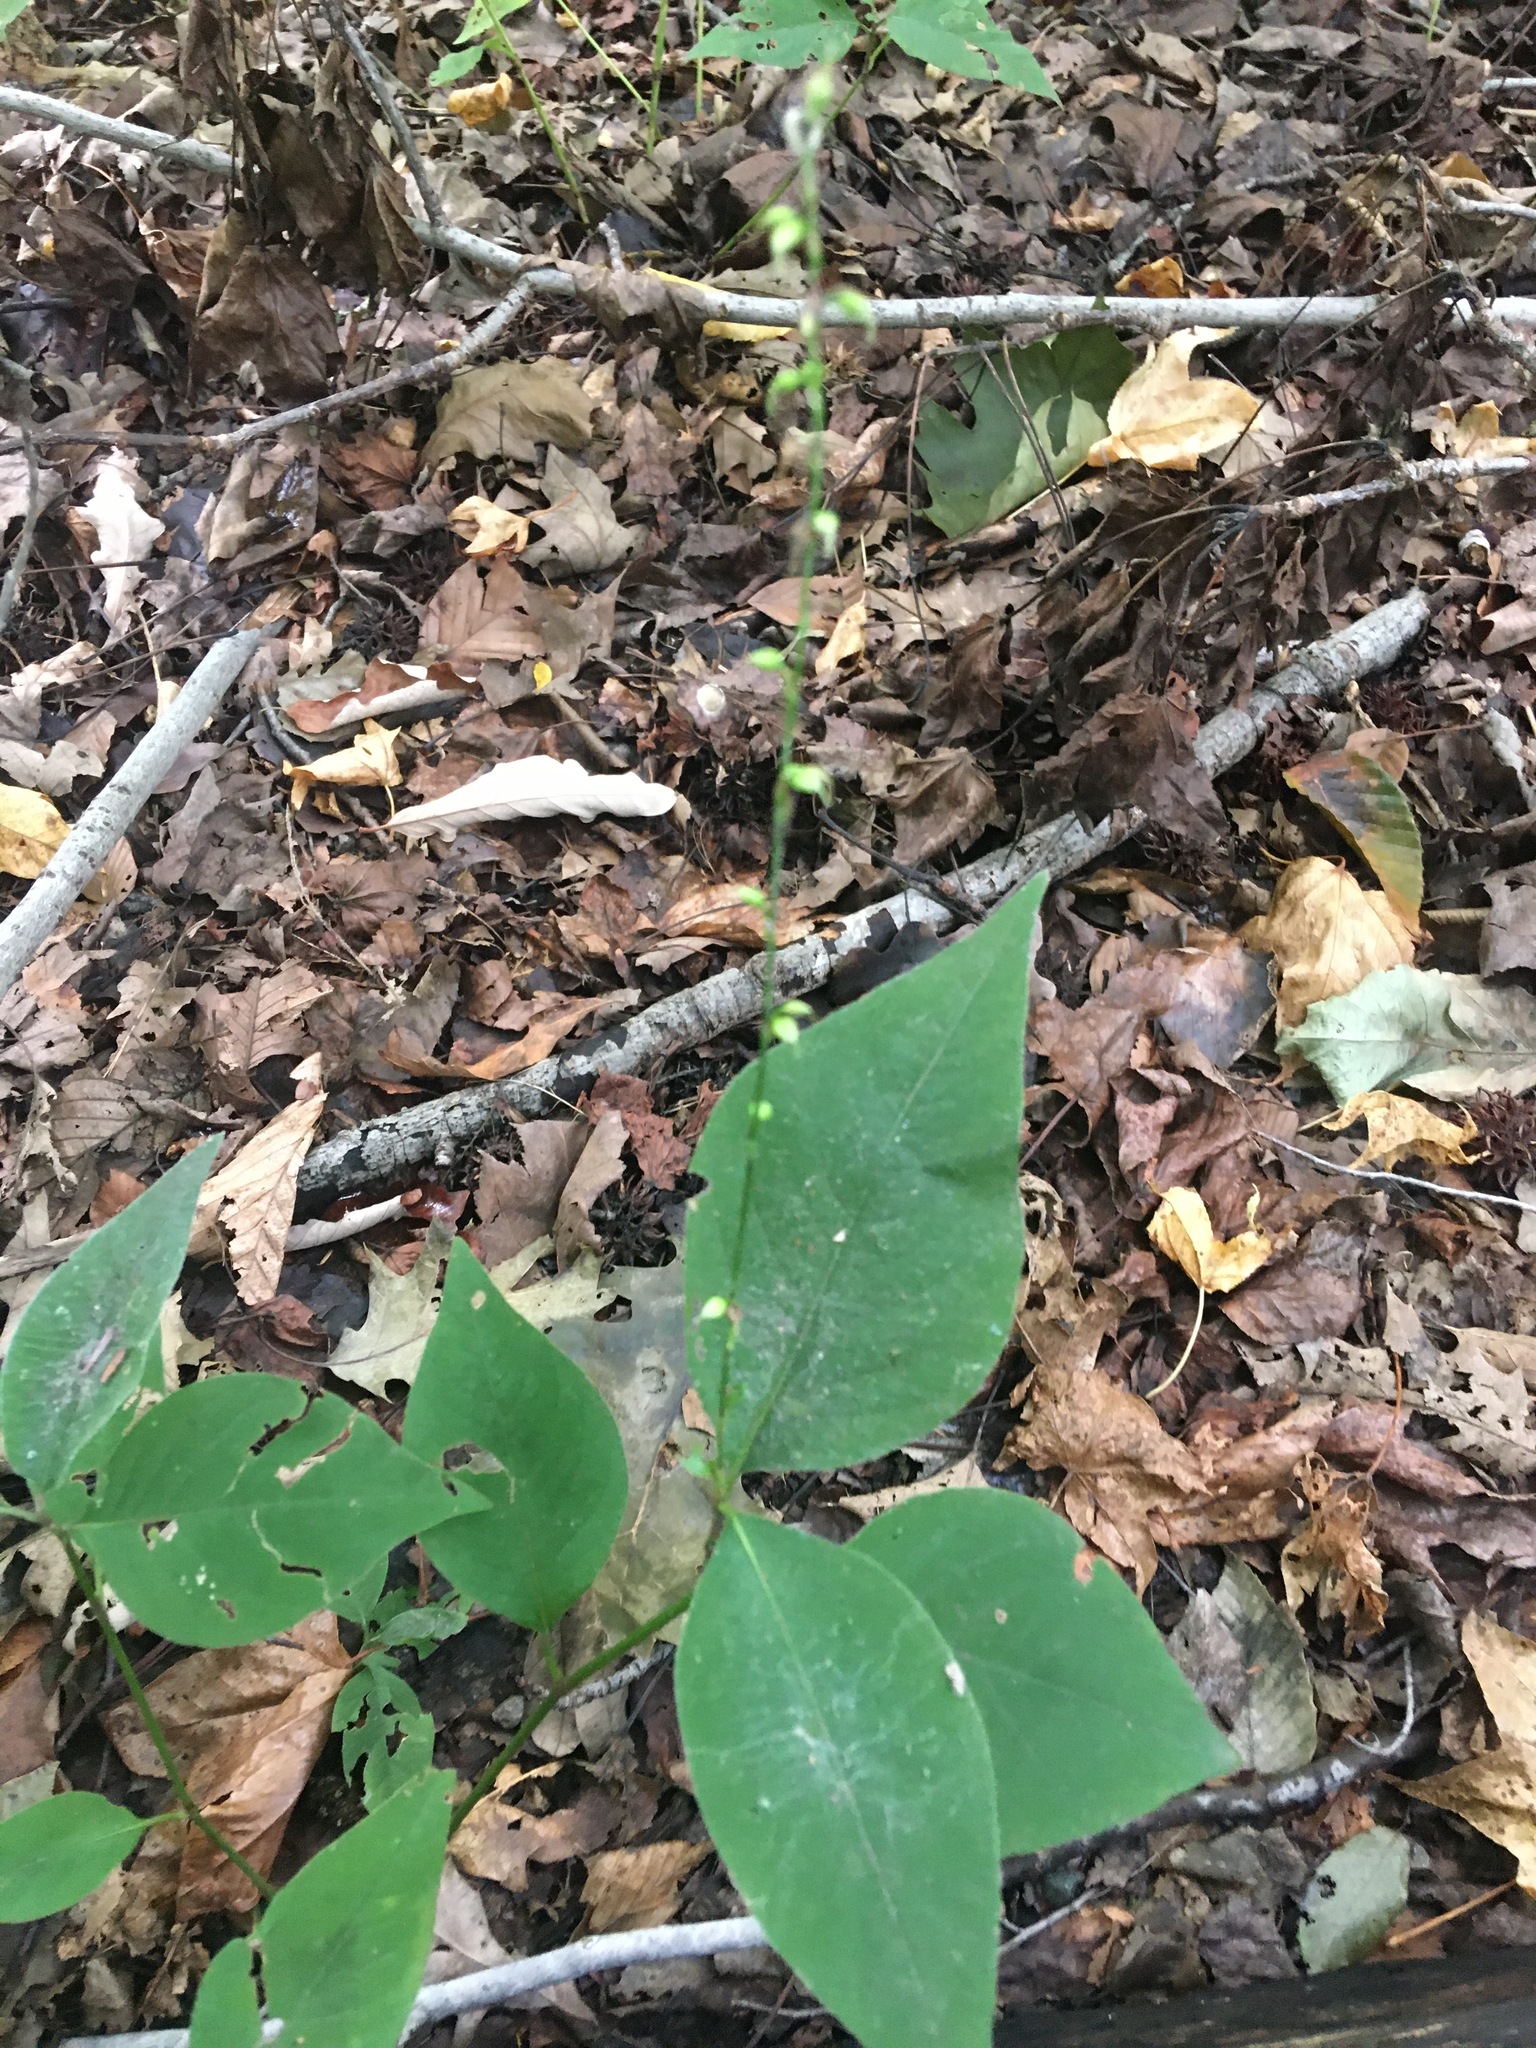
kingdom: Plantae
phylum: Tracheophyta
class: Magnoliopsida
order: Caryophyllales
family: Polygonaceae
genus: Persicaria
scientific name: Persicaria virginiana
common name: Jumpseed
